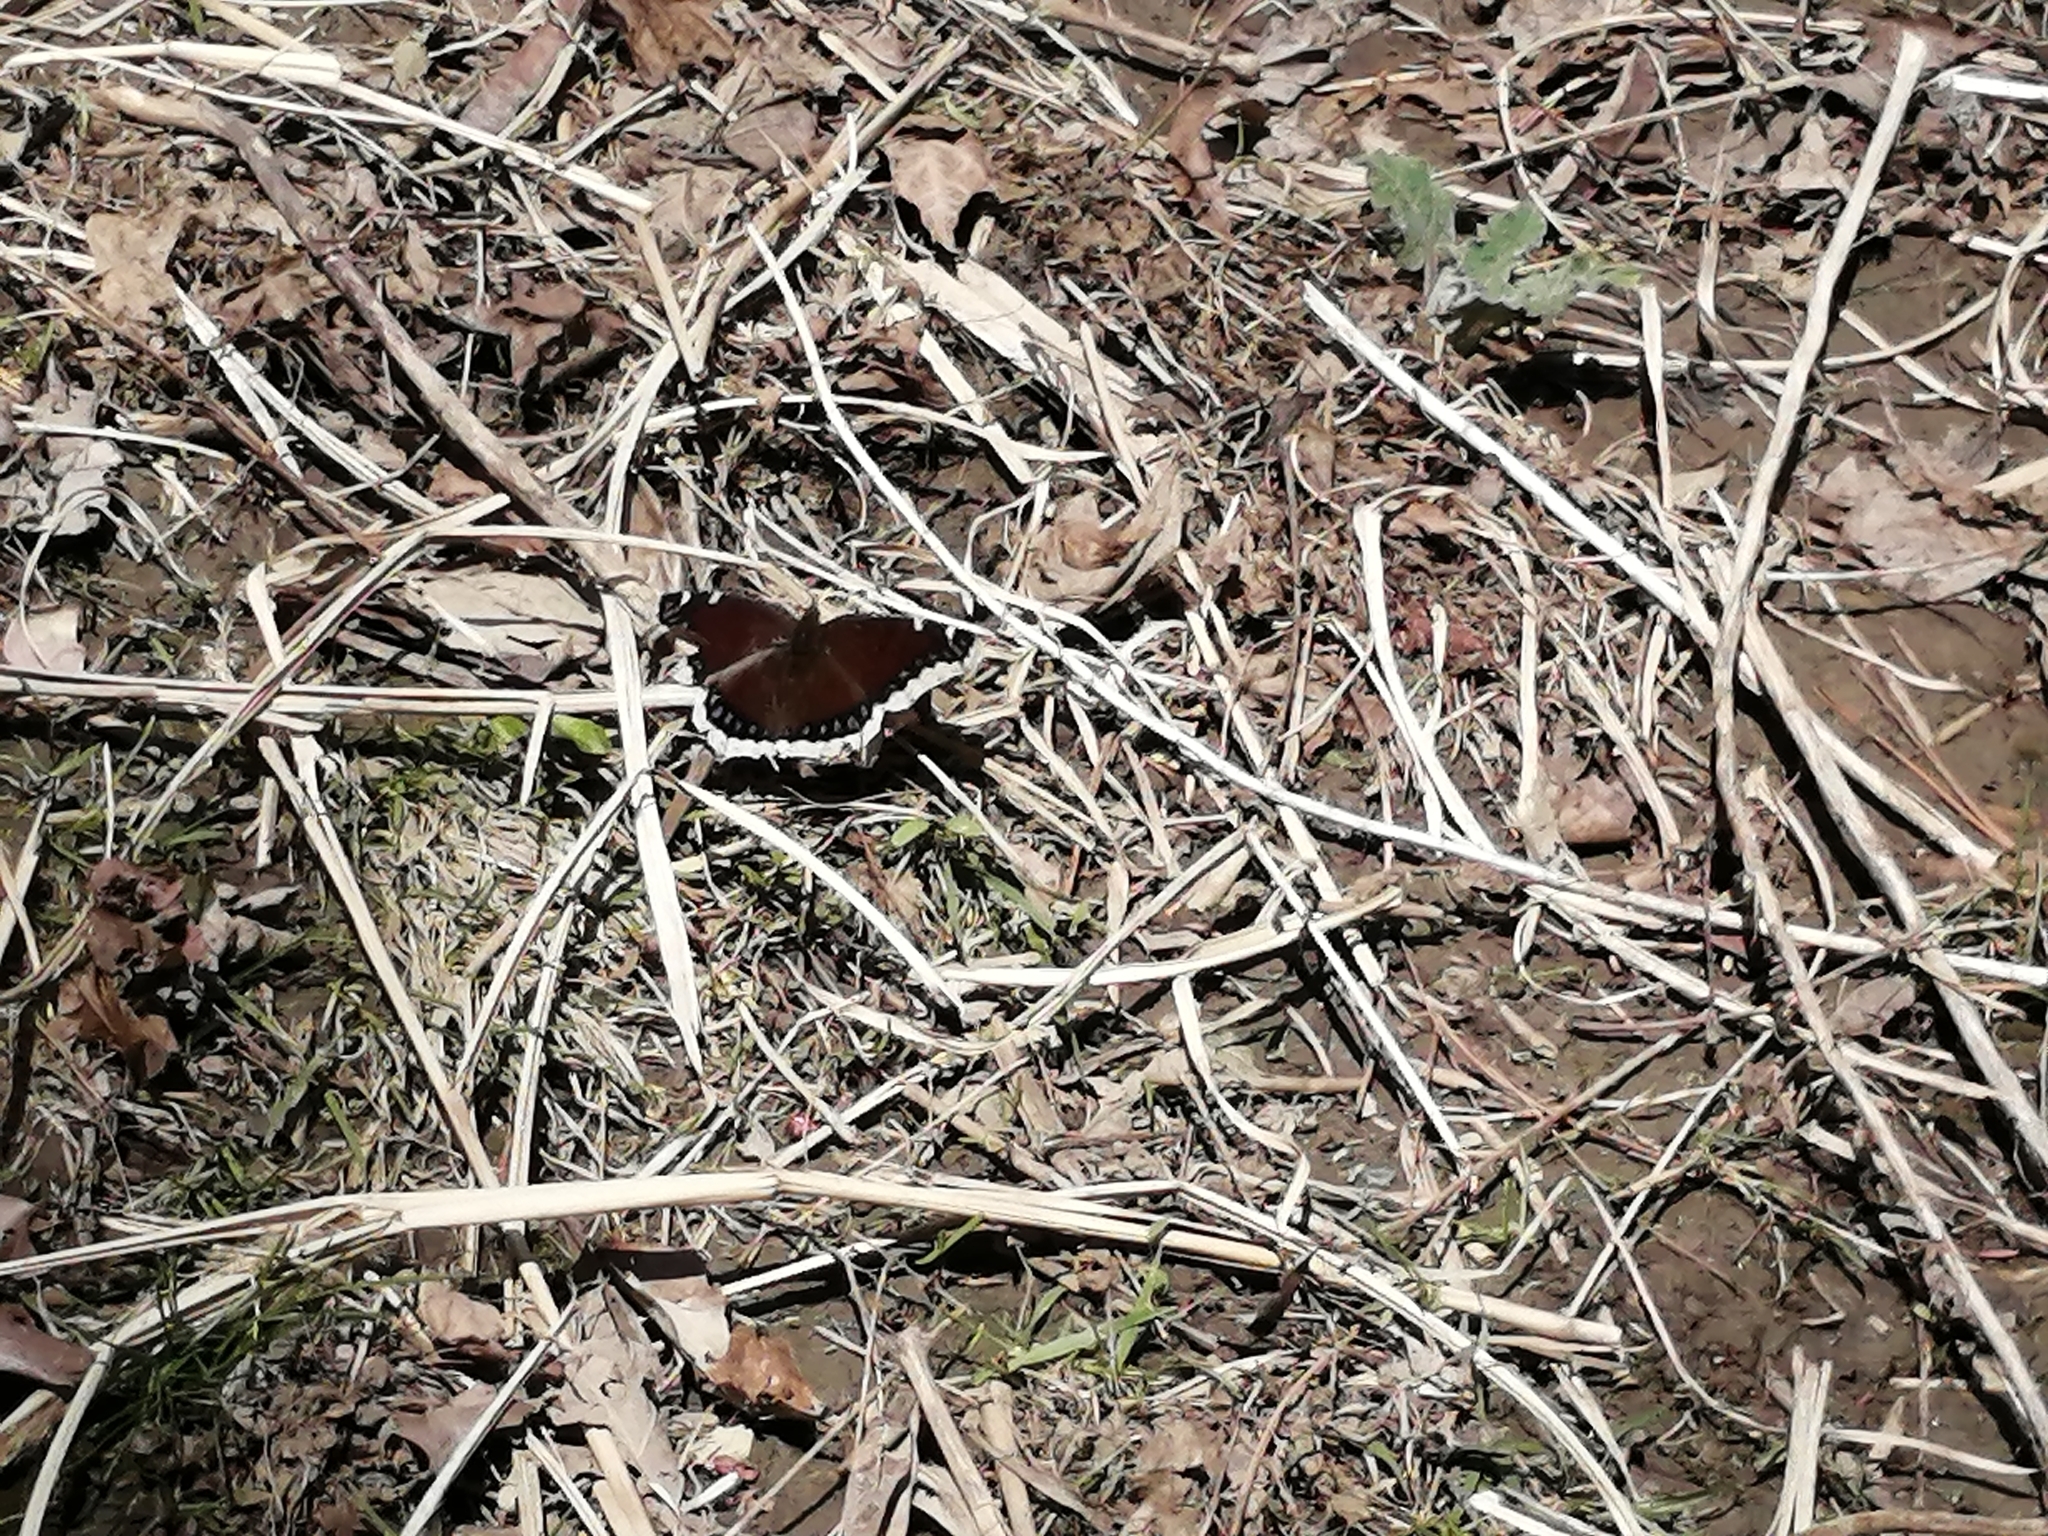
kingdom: Animalia
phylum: Arthropoda
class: Insecta
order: Lepidoptera
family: Nymphalidae
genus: Nymphalis
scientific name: Nymphalis antiopa
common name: Camberwell beauty
